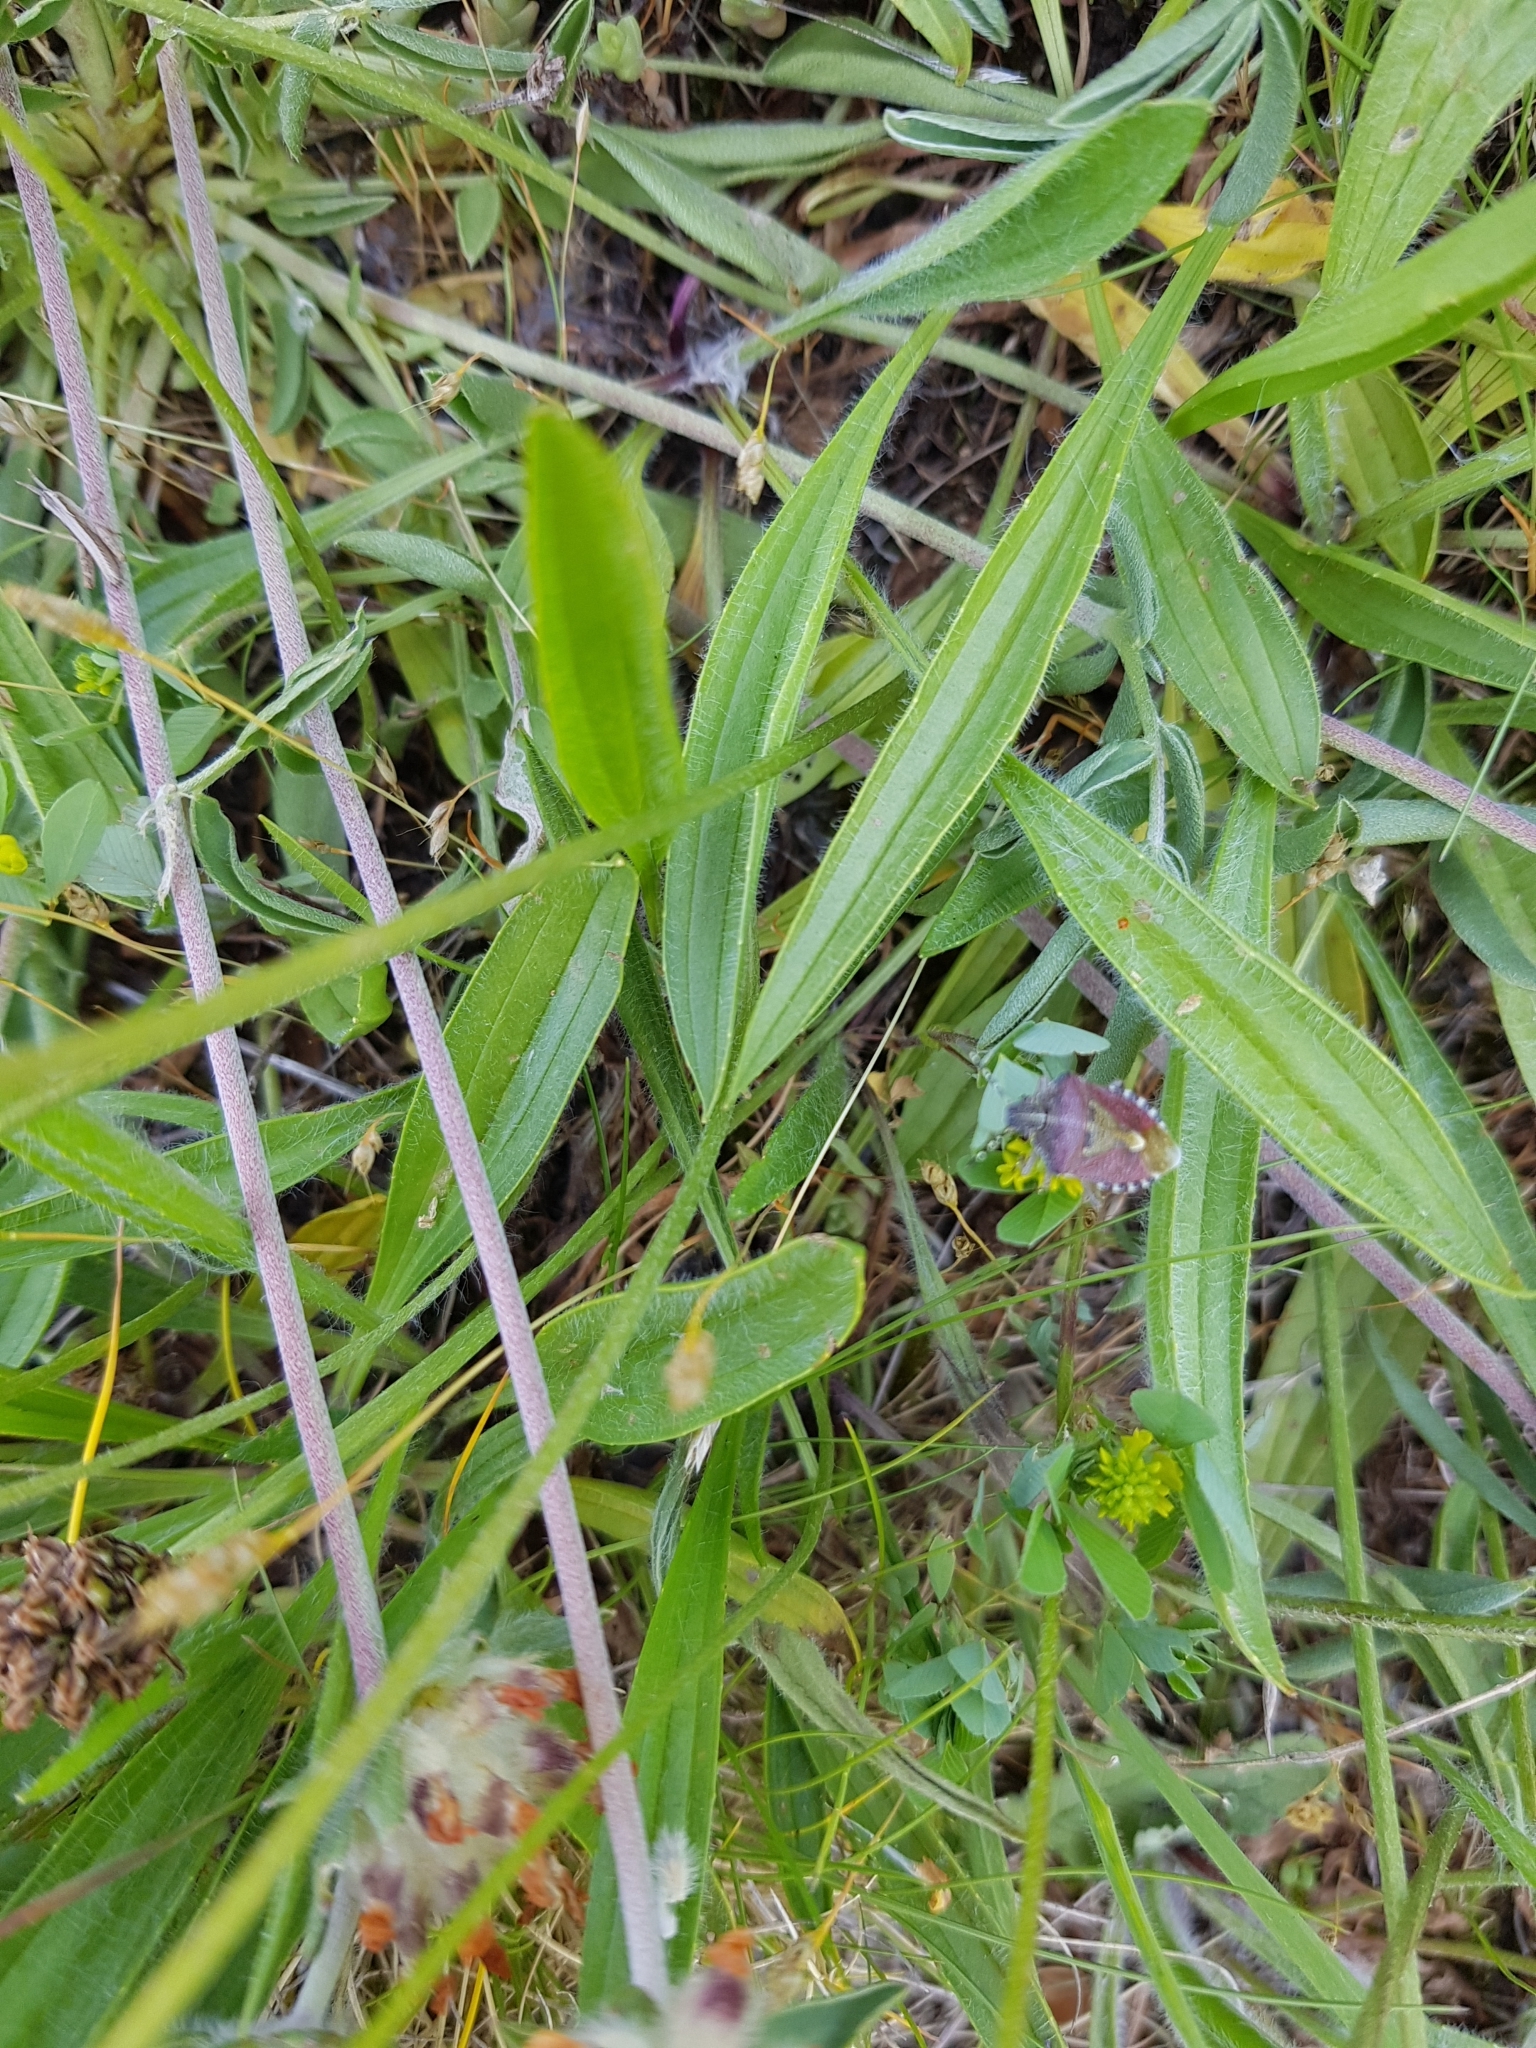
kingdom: Animalia
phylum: Arthropoda
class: Insecta
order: Hemiptera
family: Pentatomidae
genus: Dolycoris
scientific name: Dolycoris baccarum
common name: Sloe bug
